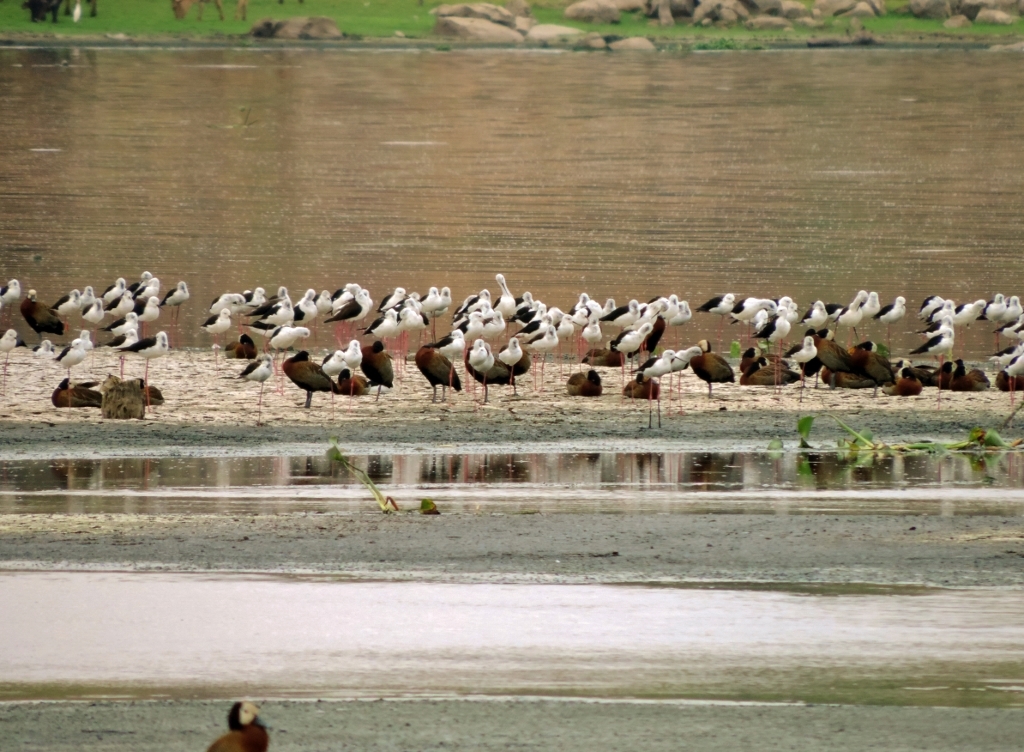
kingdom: Animalia
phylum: Chordata
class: Aves
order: Charadriiformes
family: Recurvirostridae
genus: Himantopus
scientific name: Himantopus himantopus
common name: Black-winged stilt
